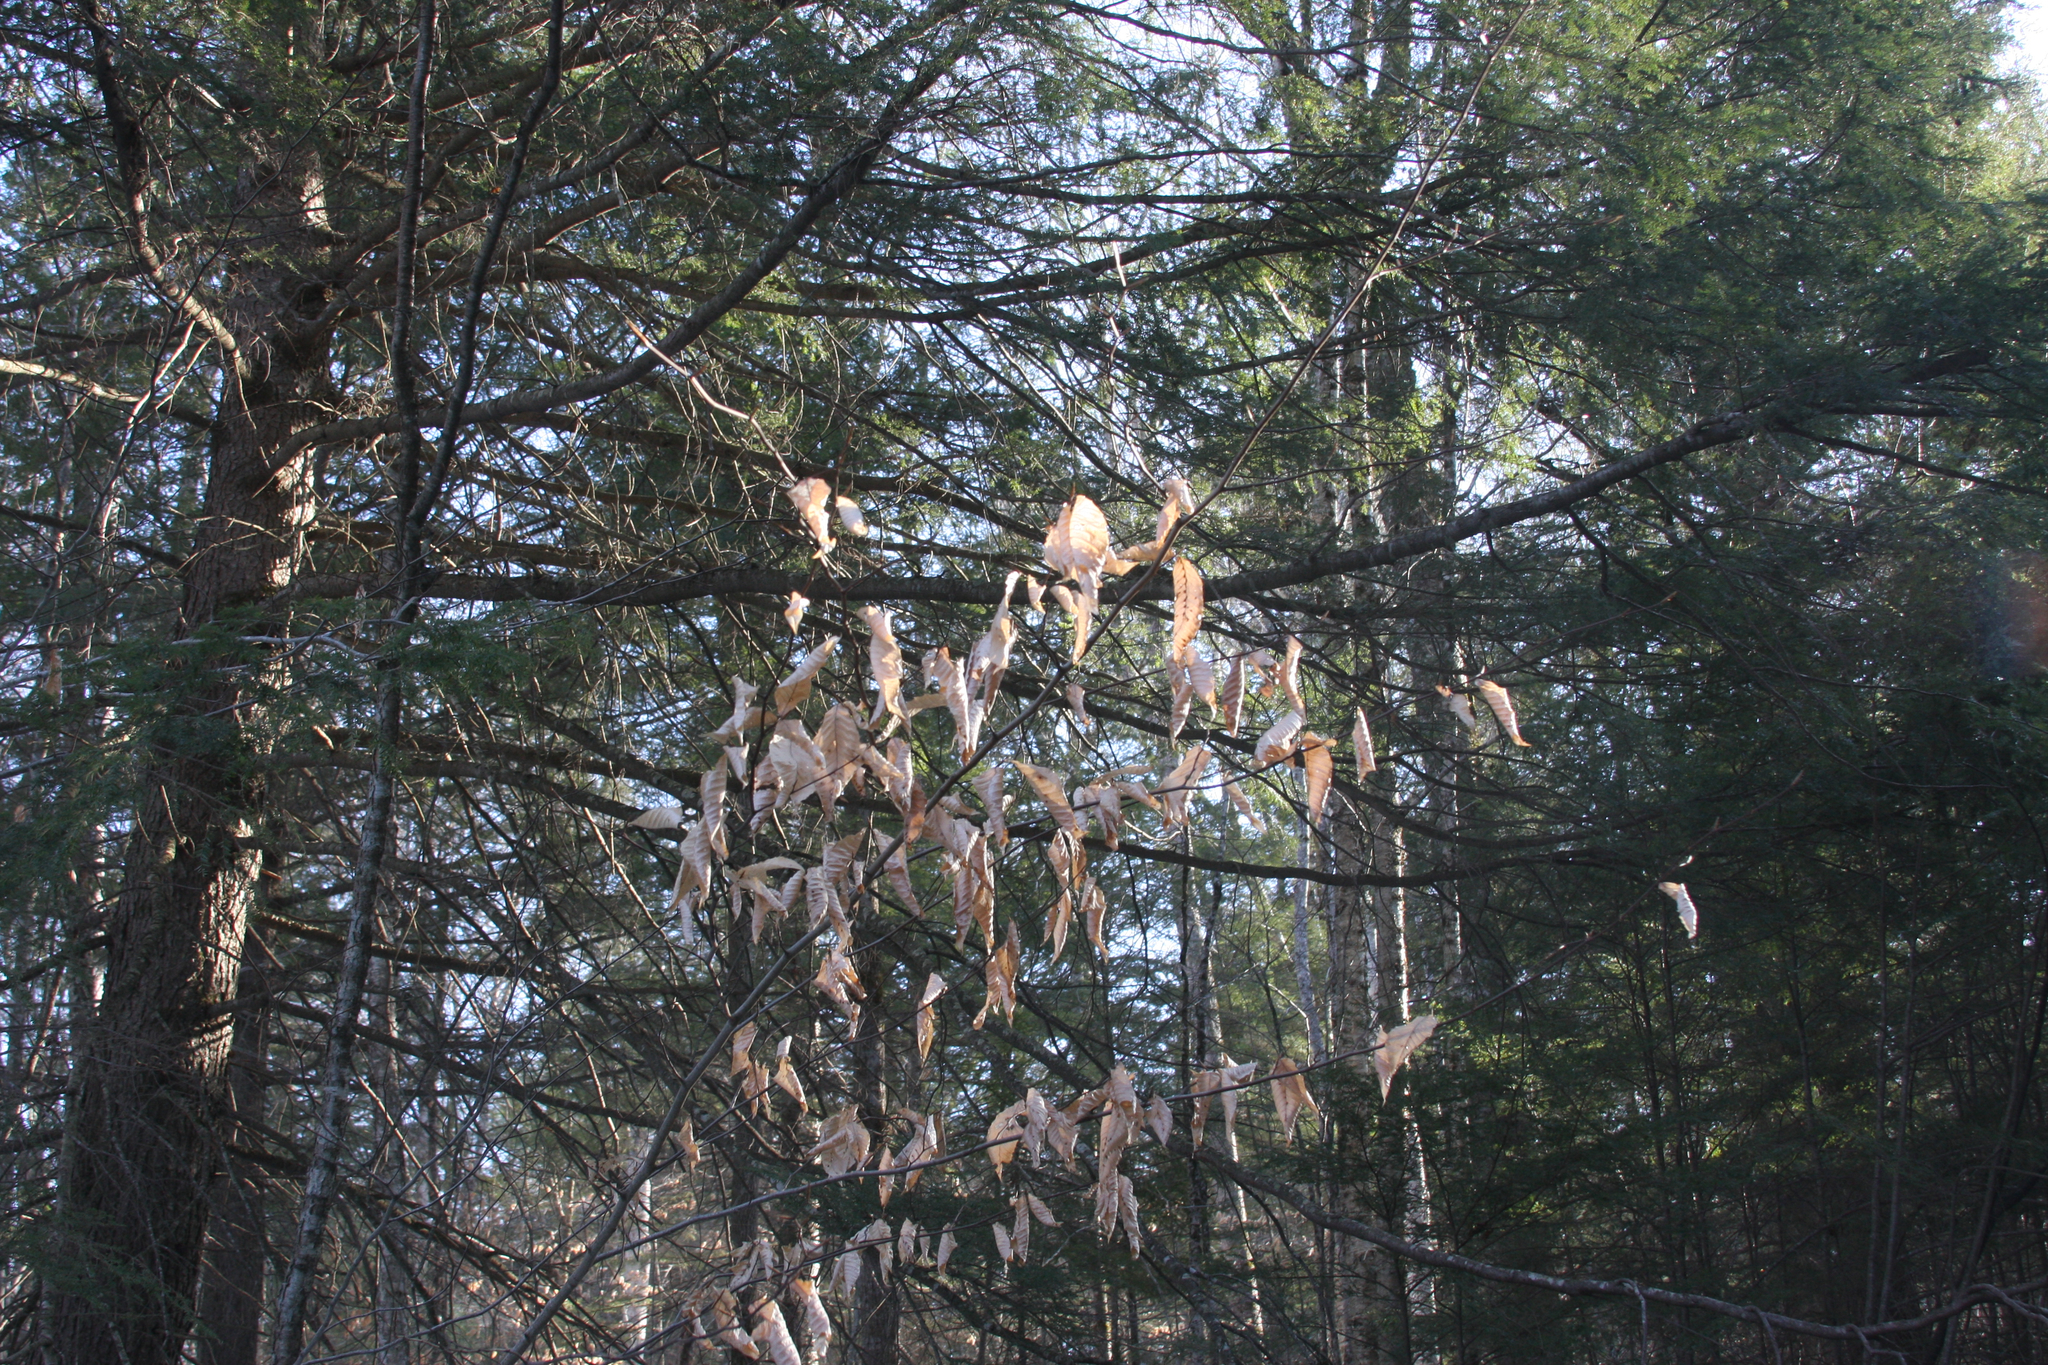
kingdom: Plantae
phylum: Tracheophyta
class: Magnoliopsida
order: Fagales
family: Fagaceae
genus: Fagus
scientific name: Fagus grandifolia
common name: American beech
